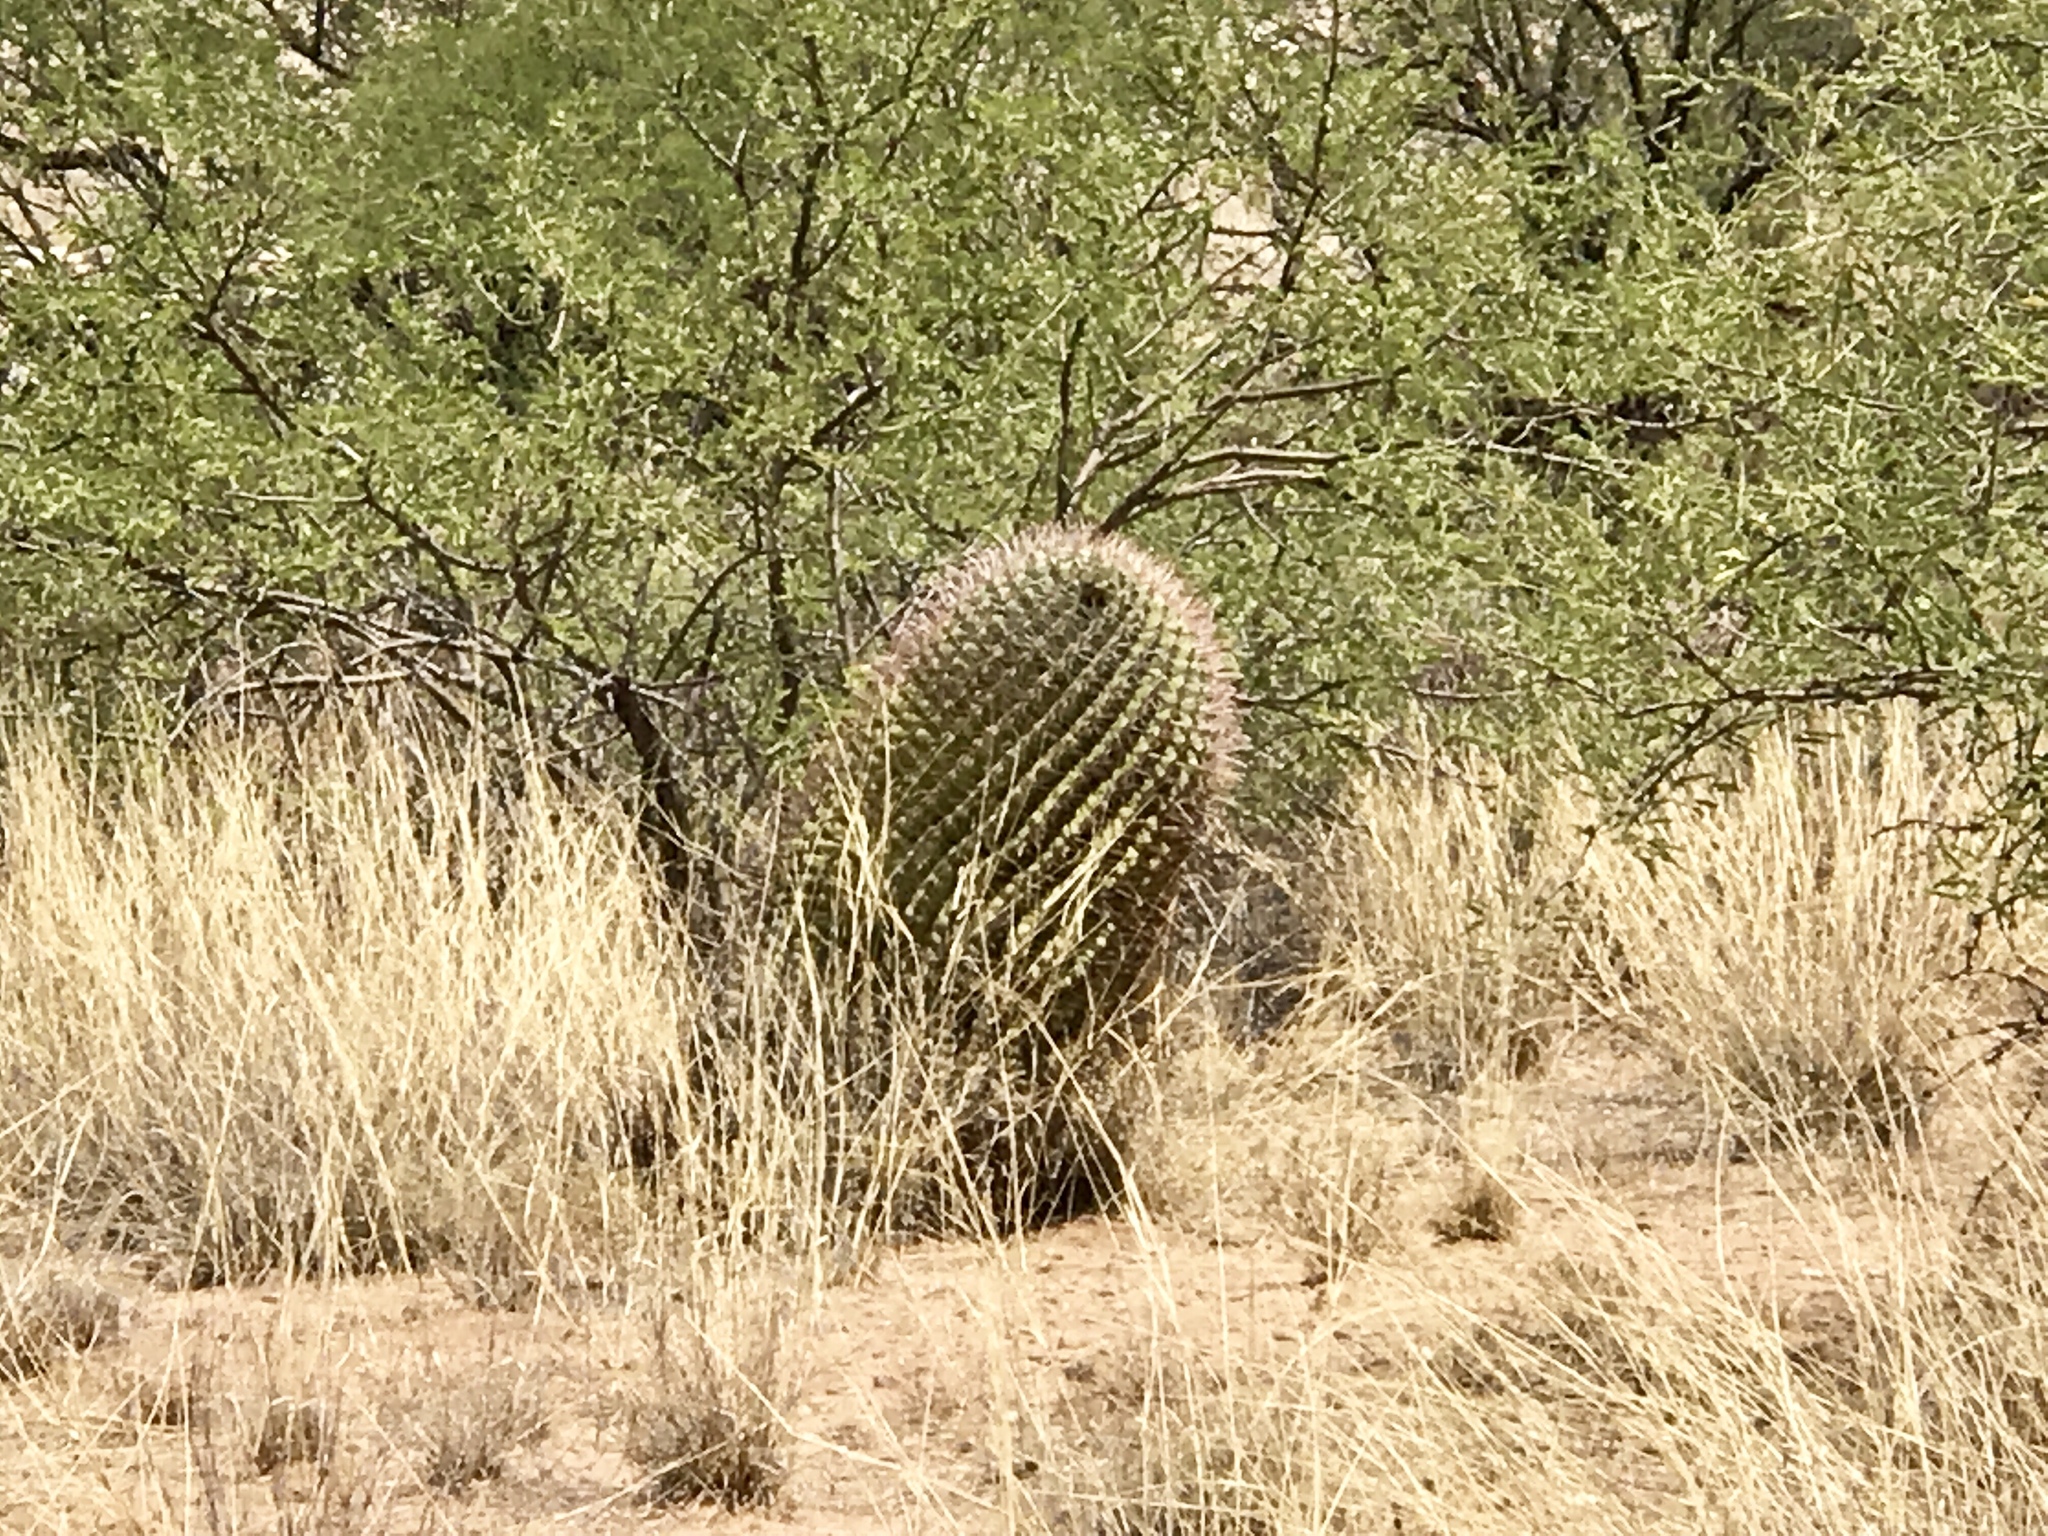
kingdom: Plantae
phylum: Tracheophyta
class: Magnoliopsida
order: Caryophyllales
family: Cactaceae
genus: Ferocactus
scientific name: Ferocactus wislizeni
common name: Candy barrel cactus
